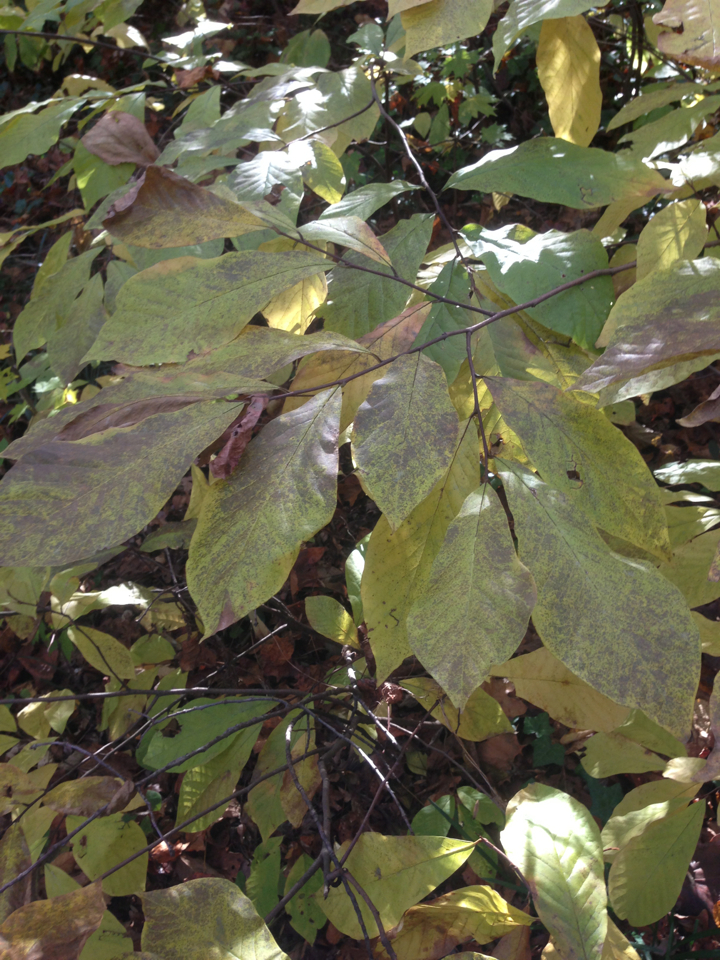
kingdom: Plantae
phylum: Tracheophyta
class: Magnoliopsida
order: Magnoliales
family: Annonaceae
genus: Asimina
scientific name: Asimina triloba
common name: Dog-banana
